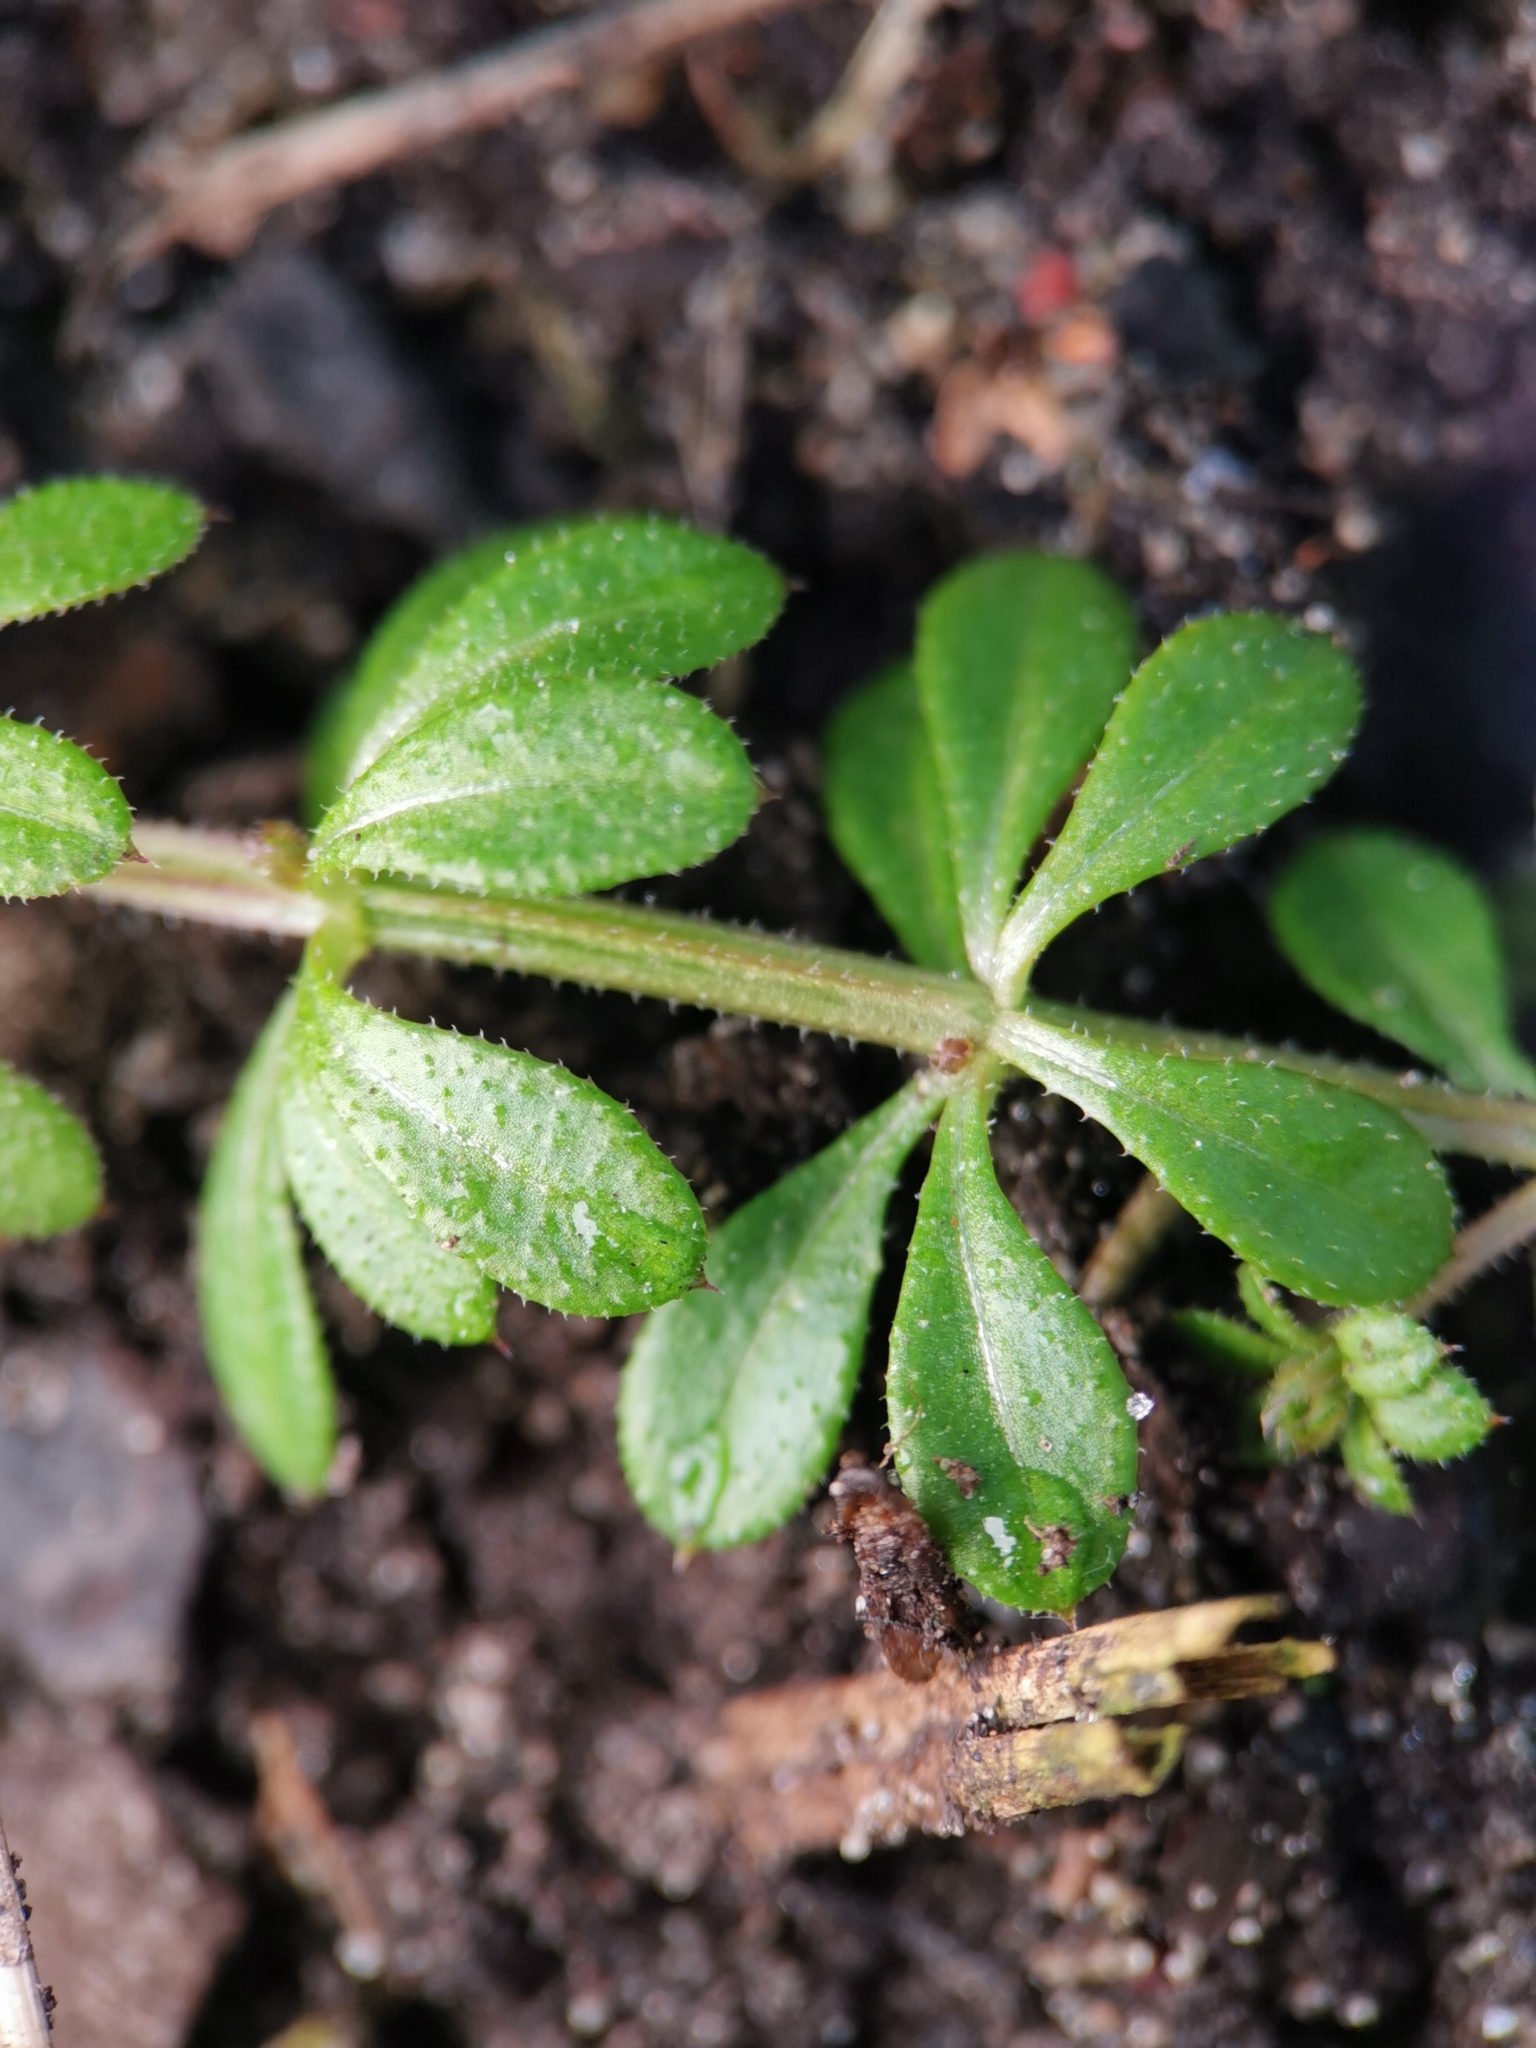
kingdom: Plantae
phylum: Tracheophyta
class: Magnoliopsida
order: Gentianales
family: Rubiaceae
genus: Galium
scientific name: Galium aparine
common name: Cleavers
